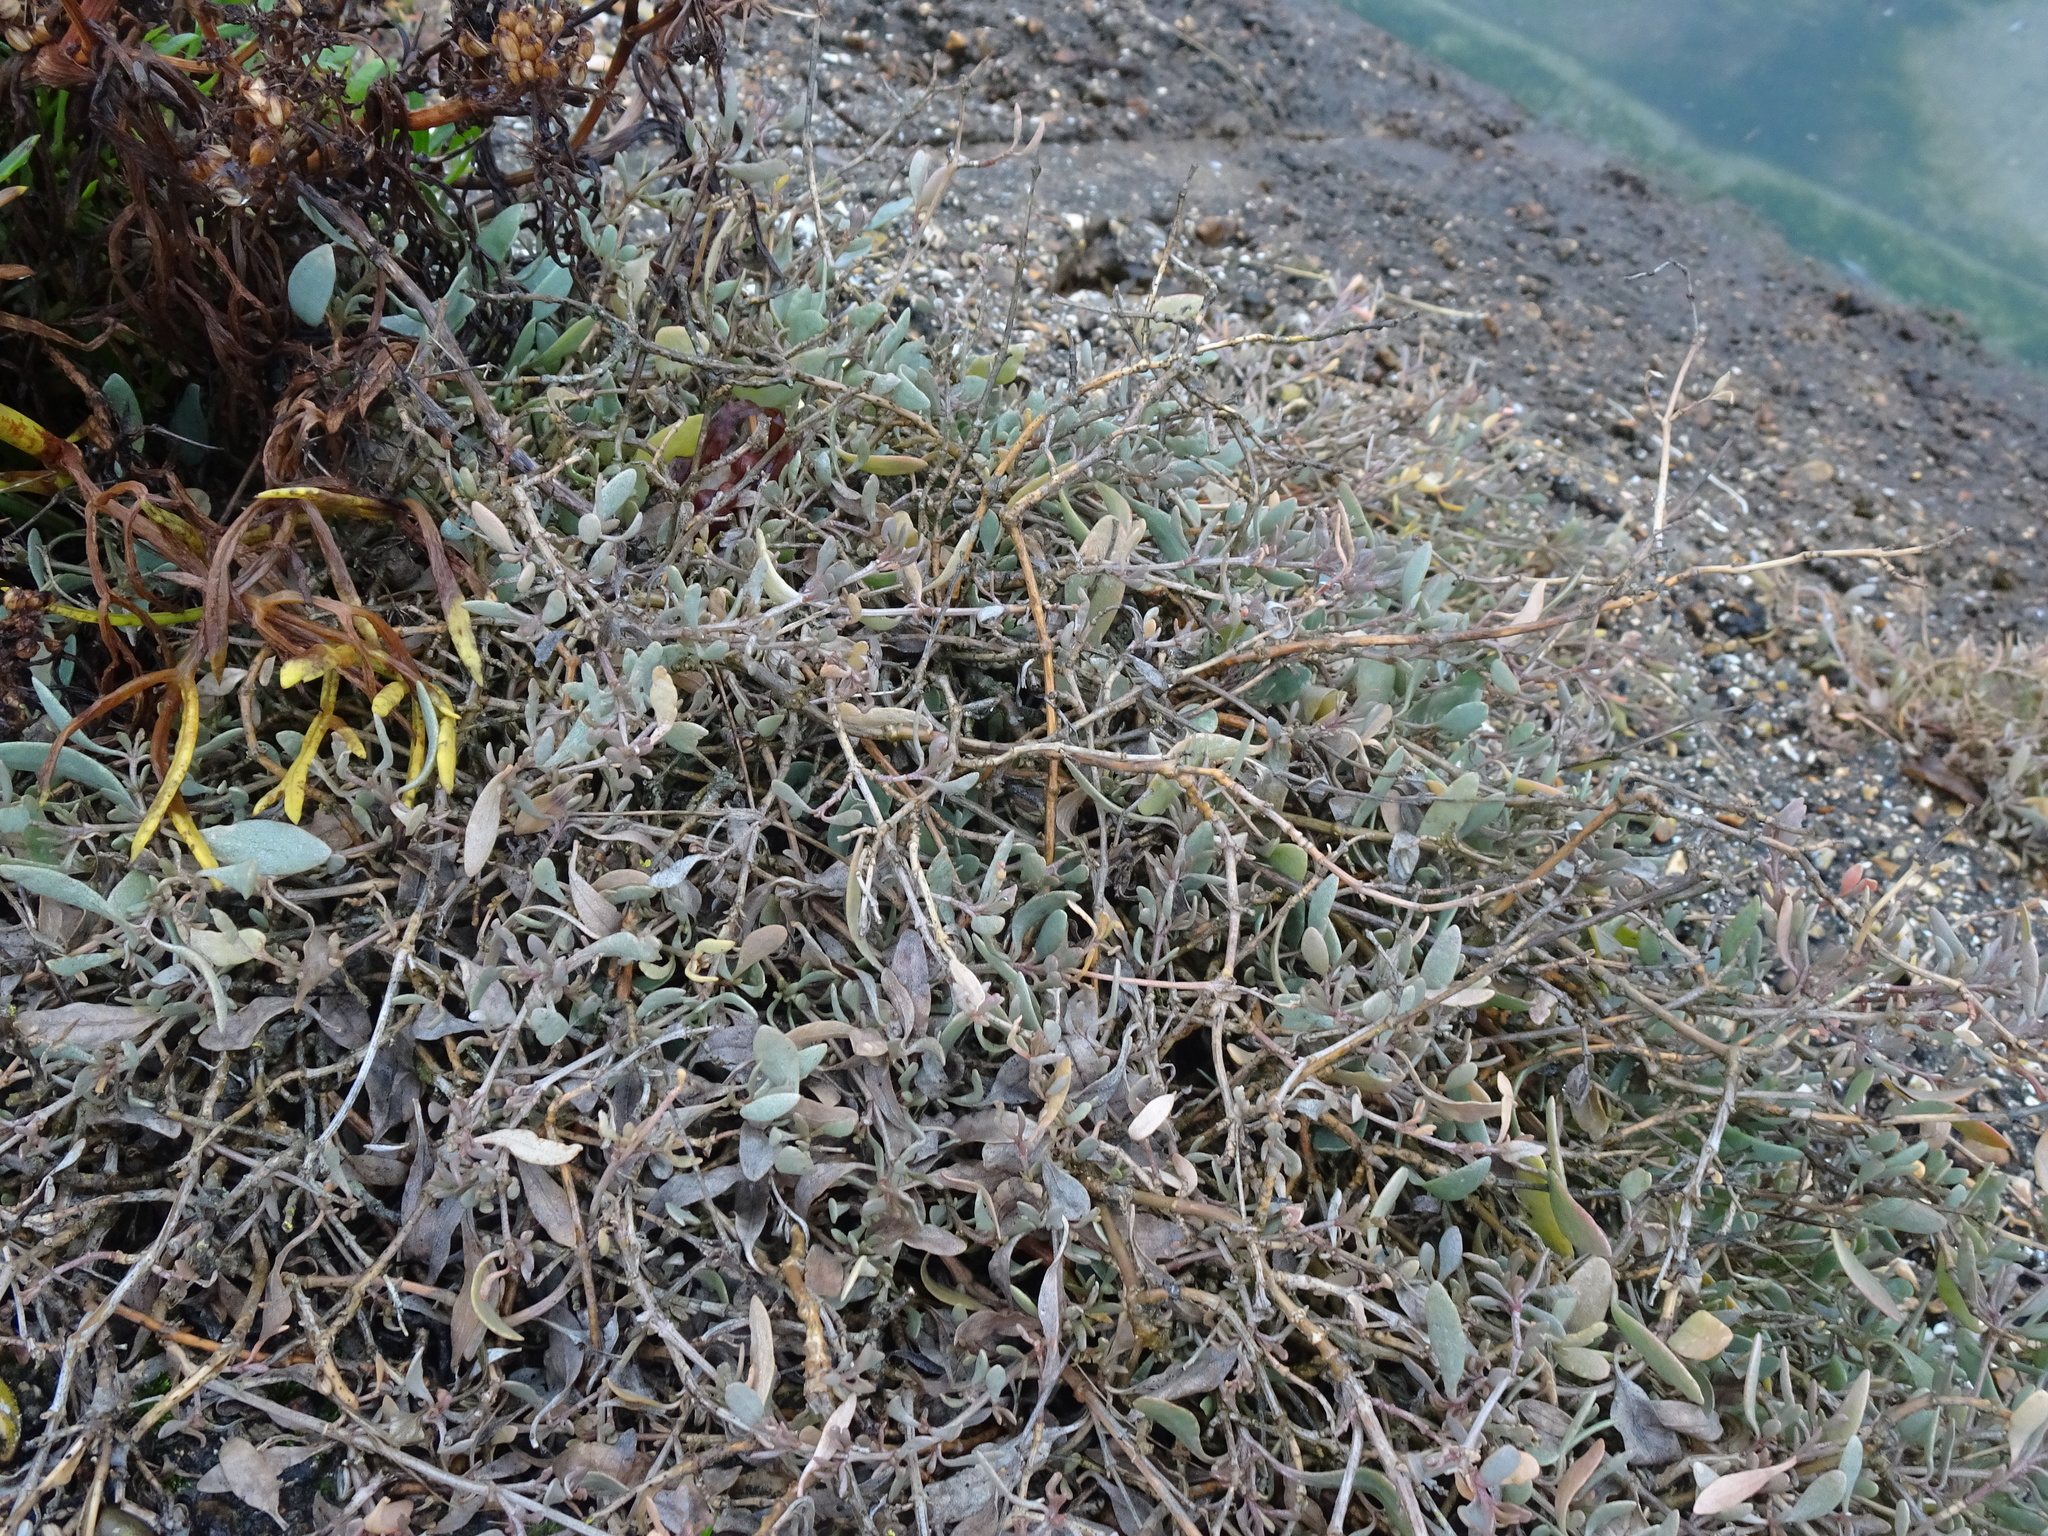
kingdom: Plantae
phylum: Tracheophyta
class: Magnoliopsida
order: Caryophyllales
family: Amaranthaceae
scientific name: Amaranthaceae
